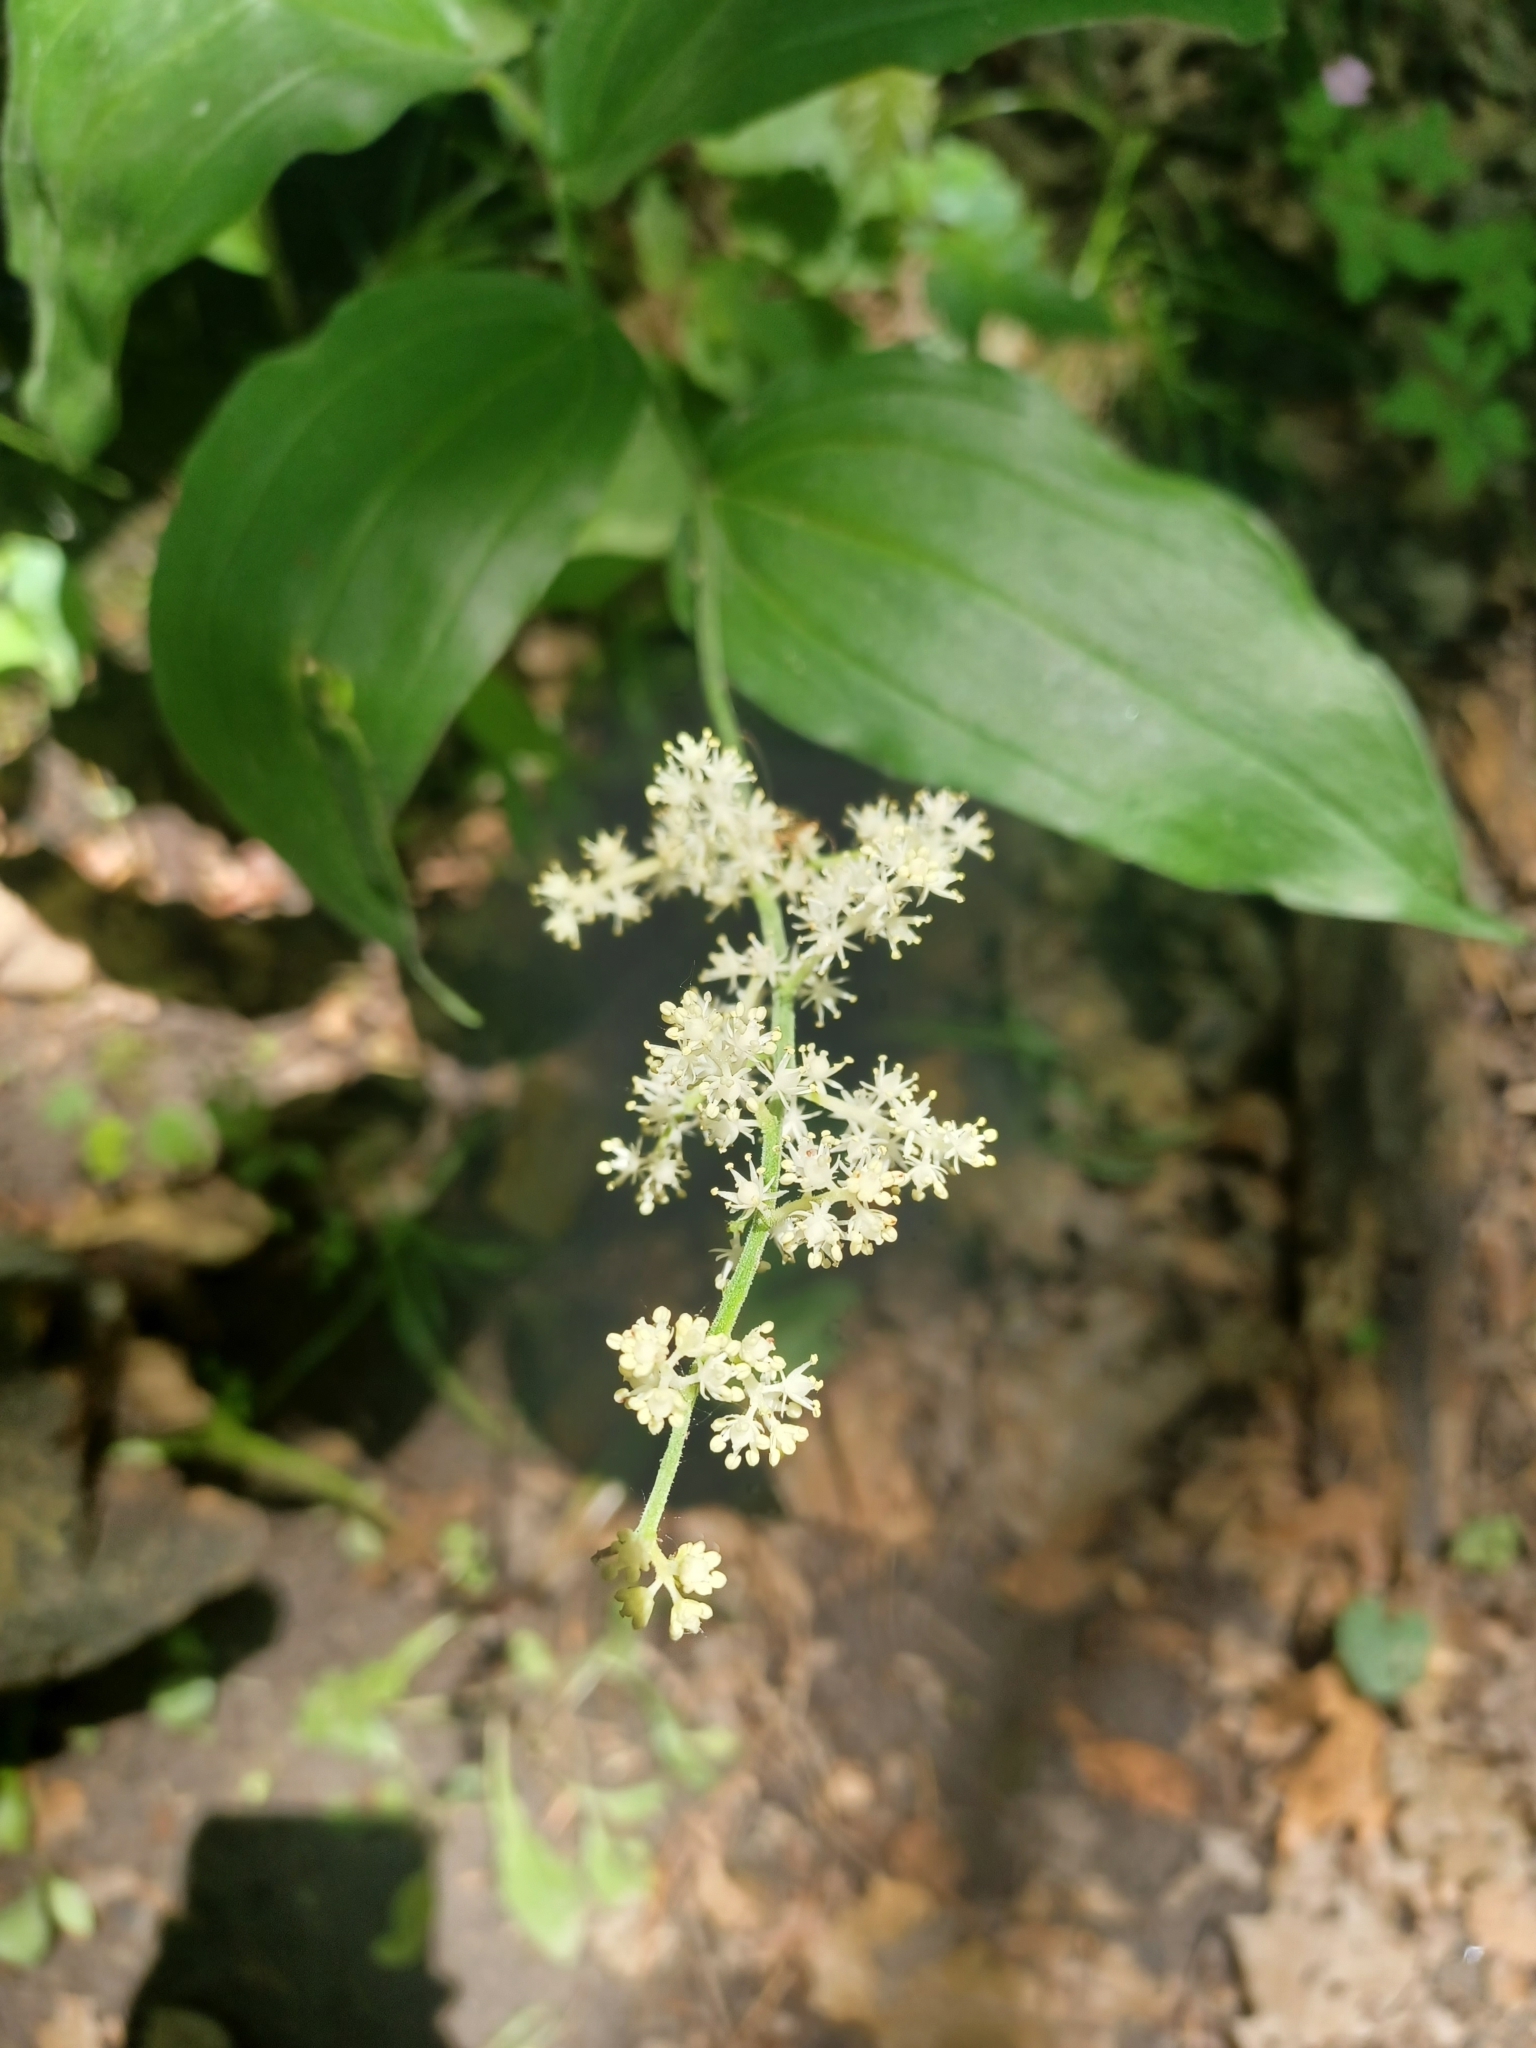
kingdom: Plantae
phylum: Tracheophyta
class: Liliopsida
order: Asparagales
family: Asparagaceae
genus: Maianthemum
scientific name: Maianthemum racemosum
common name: False spikenard
